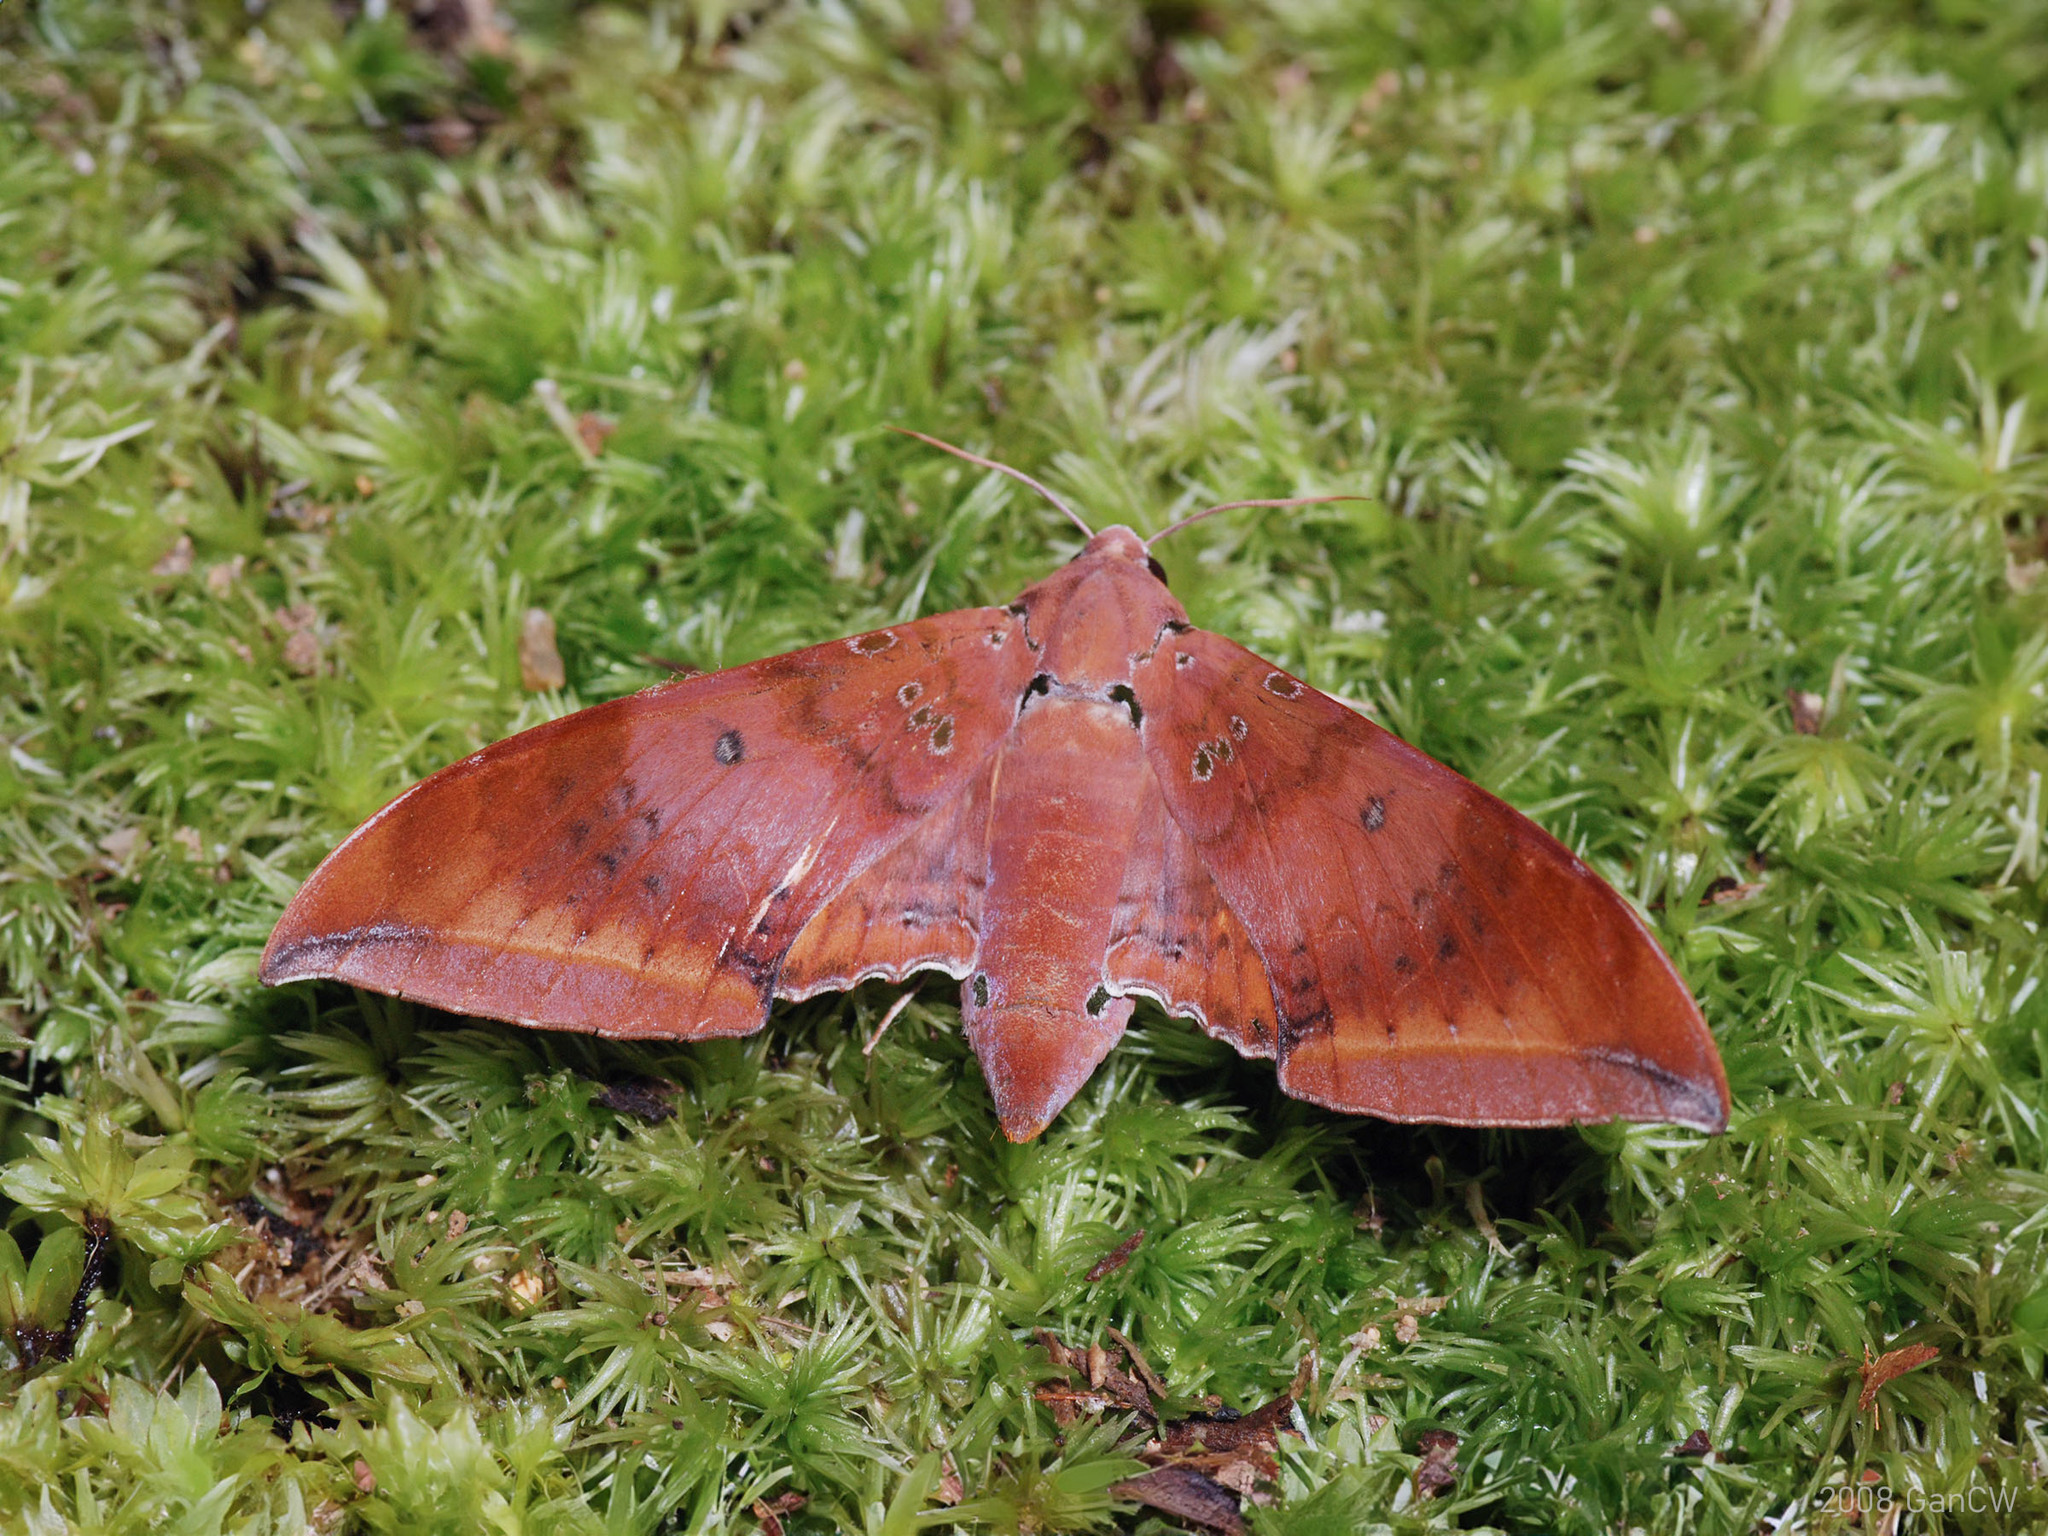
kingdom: Animalia
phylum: Arthropoda
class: Insecta
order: Lepidoptera
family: Sphingidae
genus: Ambulyx
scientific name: Ambulyx moorei
